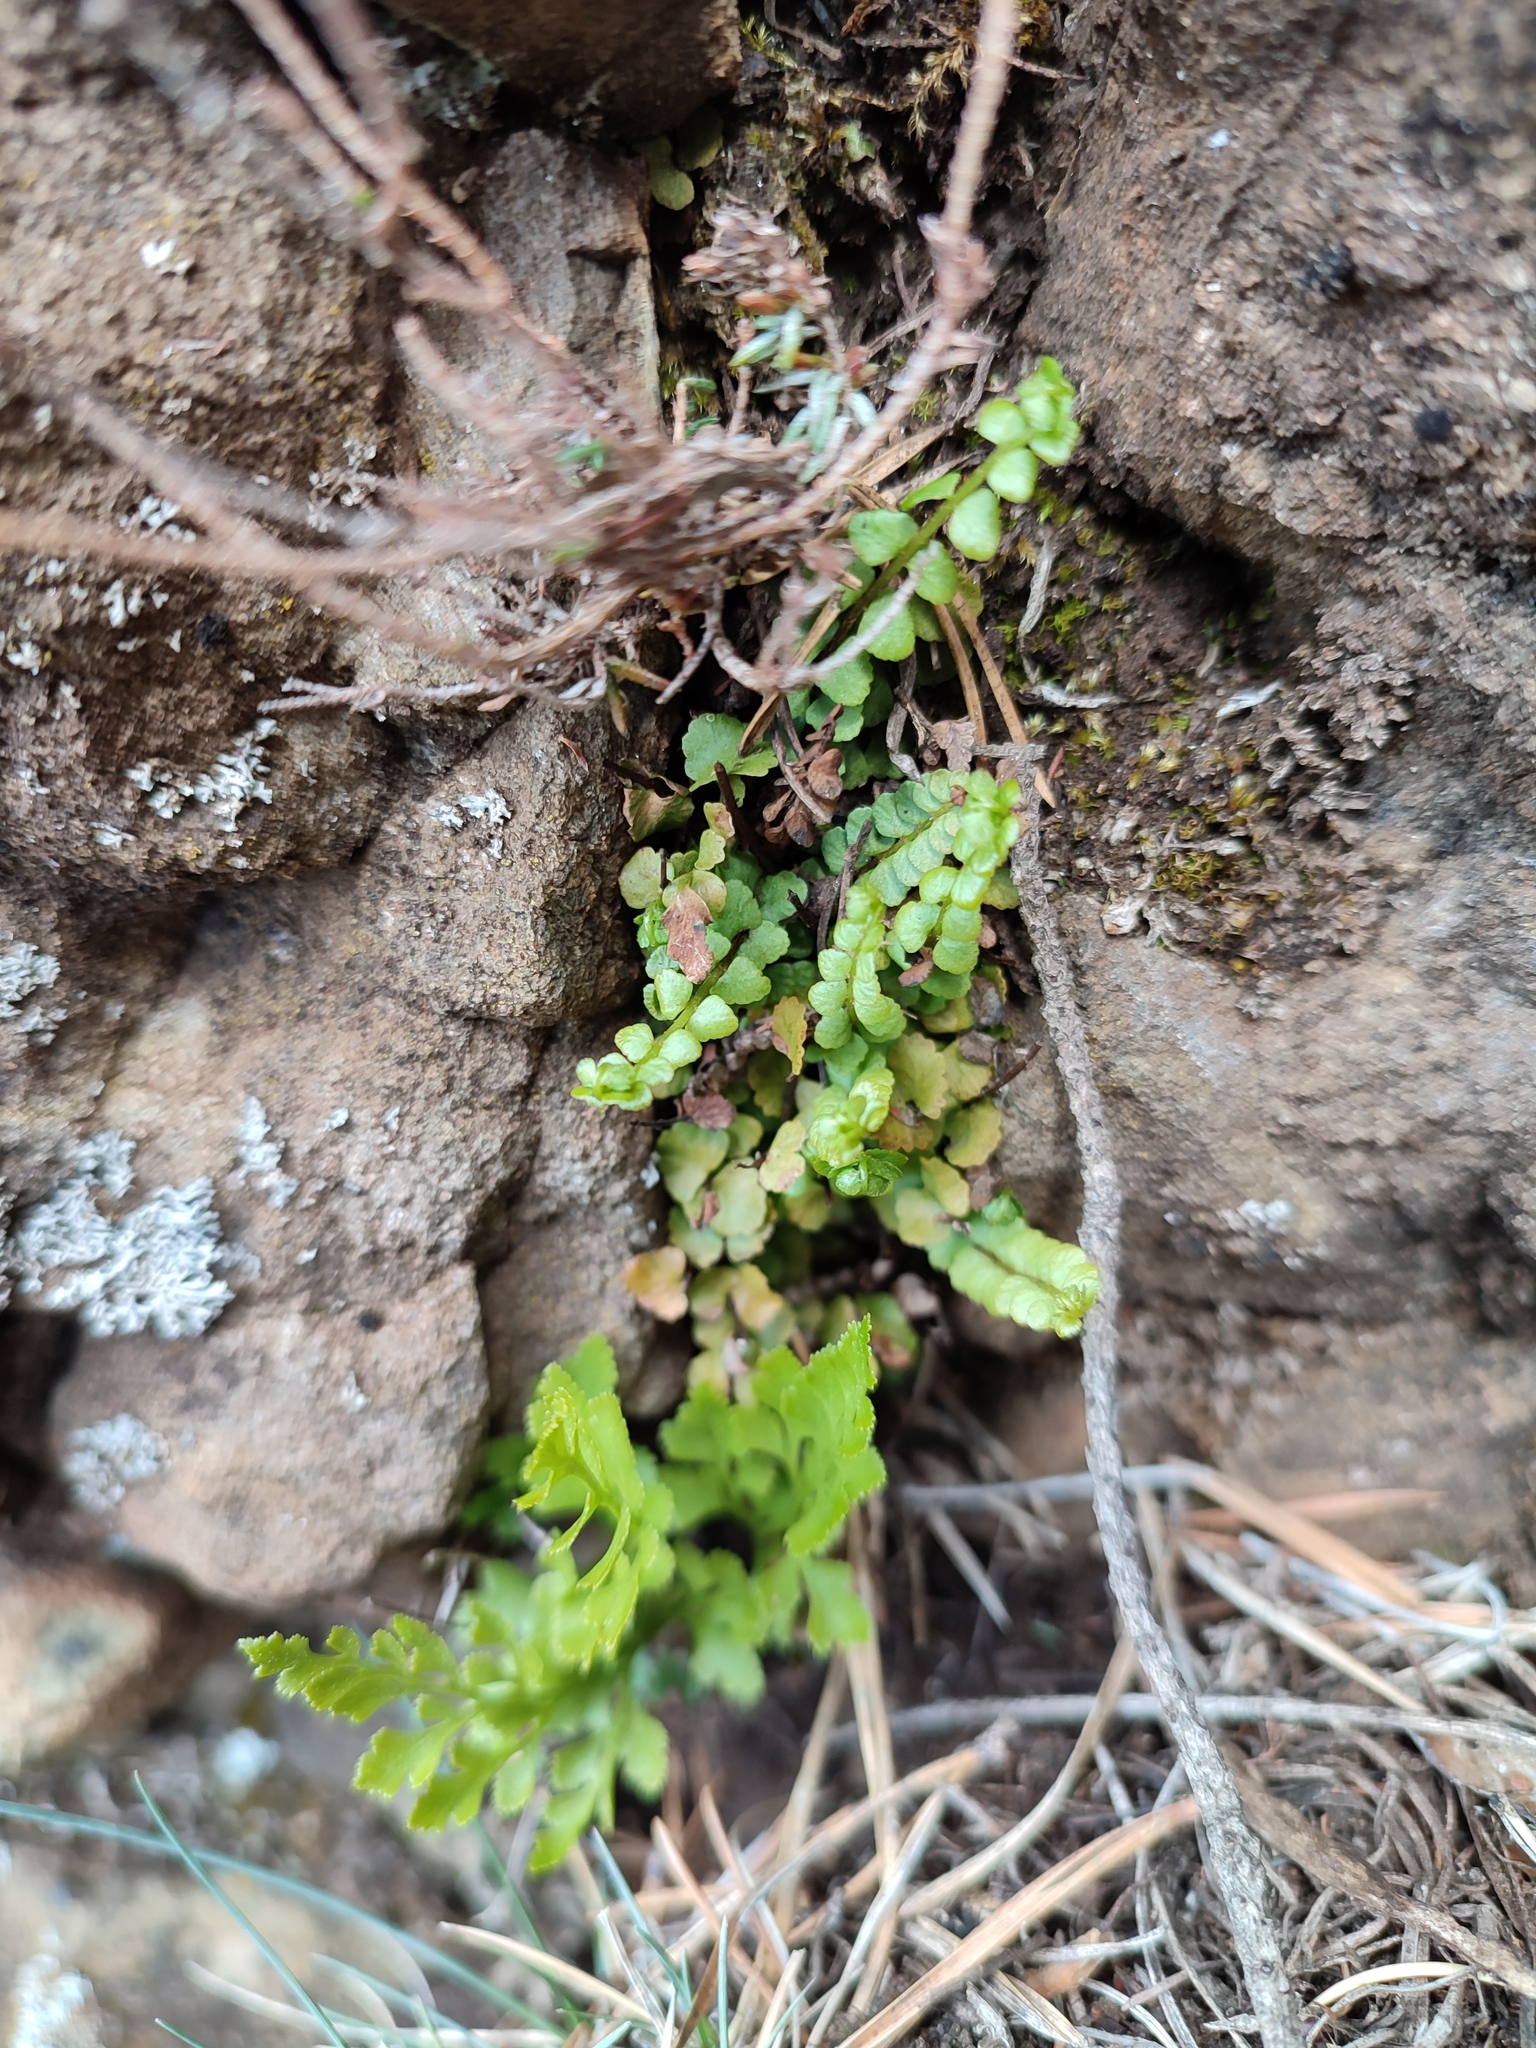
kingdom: Plantae
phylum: Tracheophyta
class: Polypodiopsida
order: Polypodiales
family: Aspleniaceae
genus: Asplenium
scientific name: Asplenium adulterinum
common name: Adulterated spleenwort
